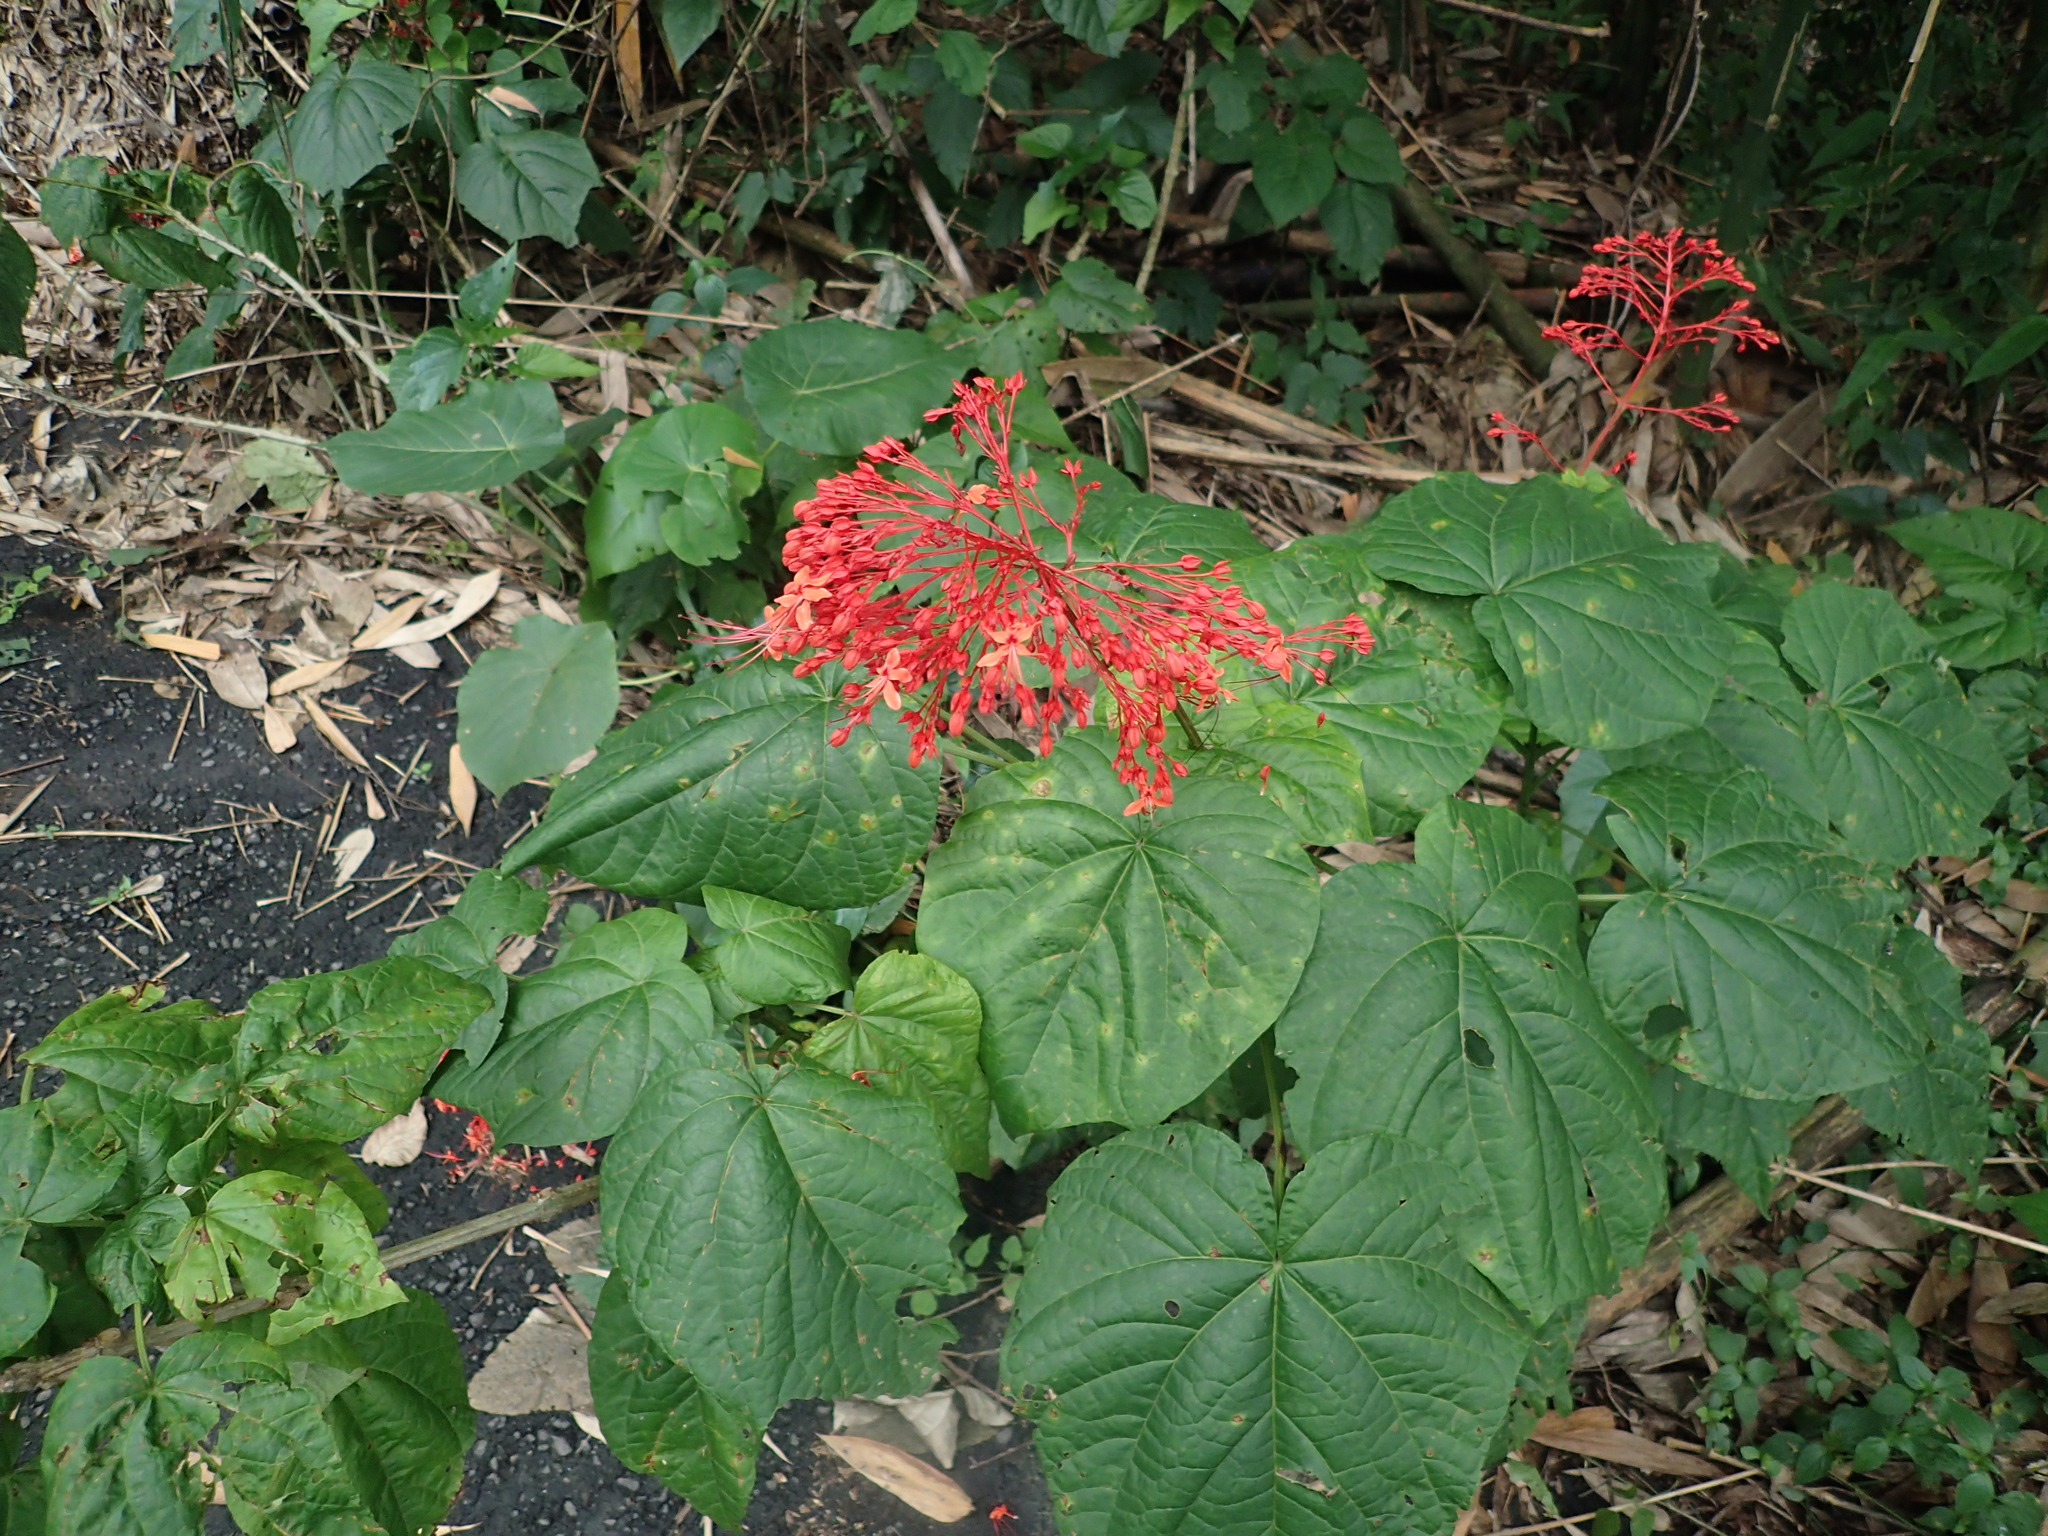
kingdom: Plantae
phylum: Tracheophyta
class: Magnoliopsida
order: Lamiales
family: Lamiaceae
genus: Clerodendrum
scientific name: Clerodendrum japonicum
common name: Japanese glorybower
